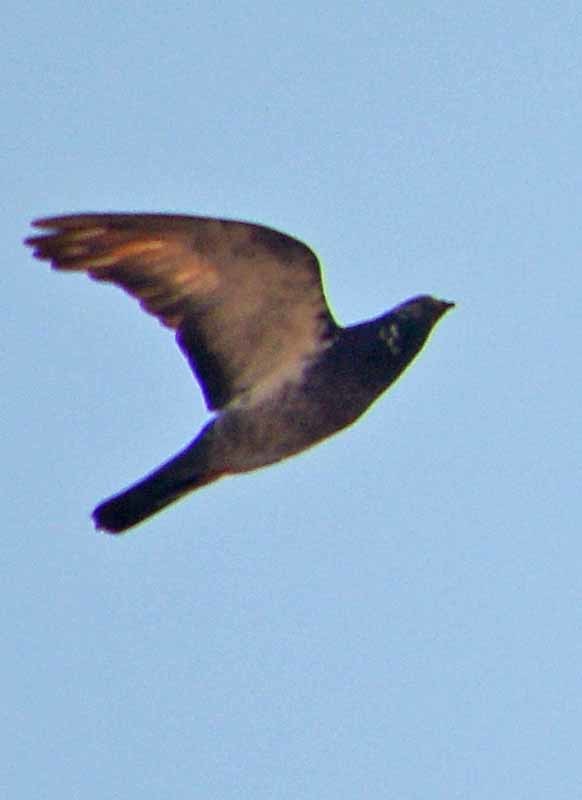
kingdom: Animalia
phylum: Chordata
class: Aves
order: Columbiformes
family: Columbidae
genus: Columba
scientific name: Columba livia
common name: Rock pigeon
